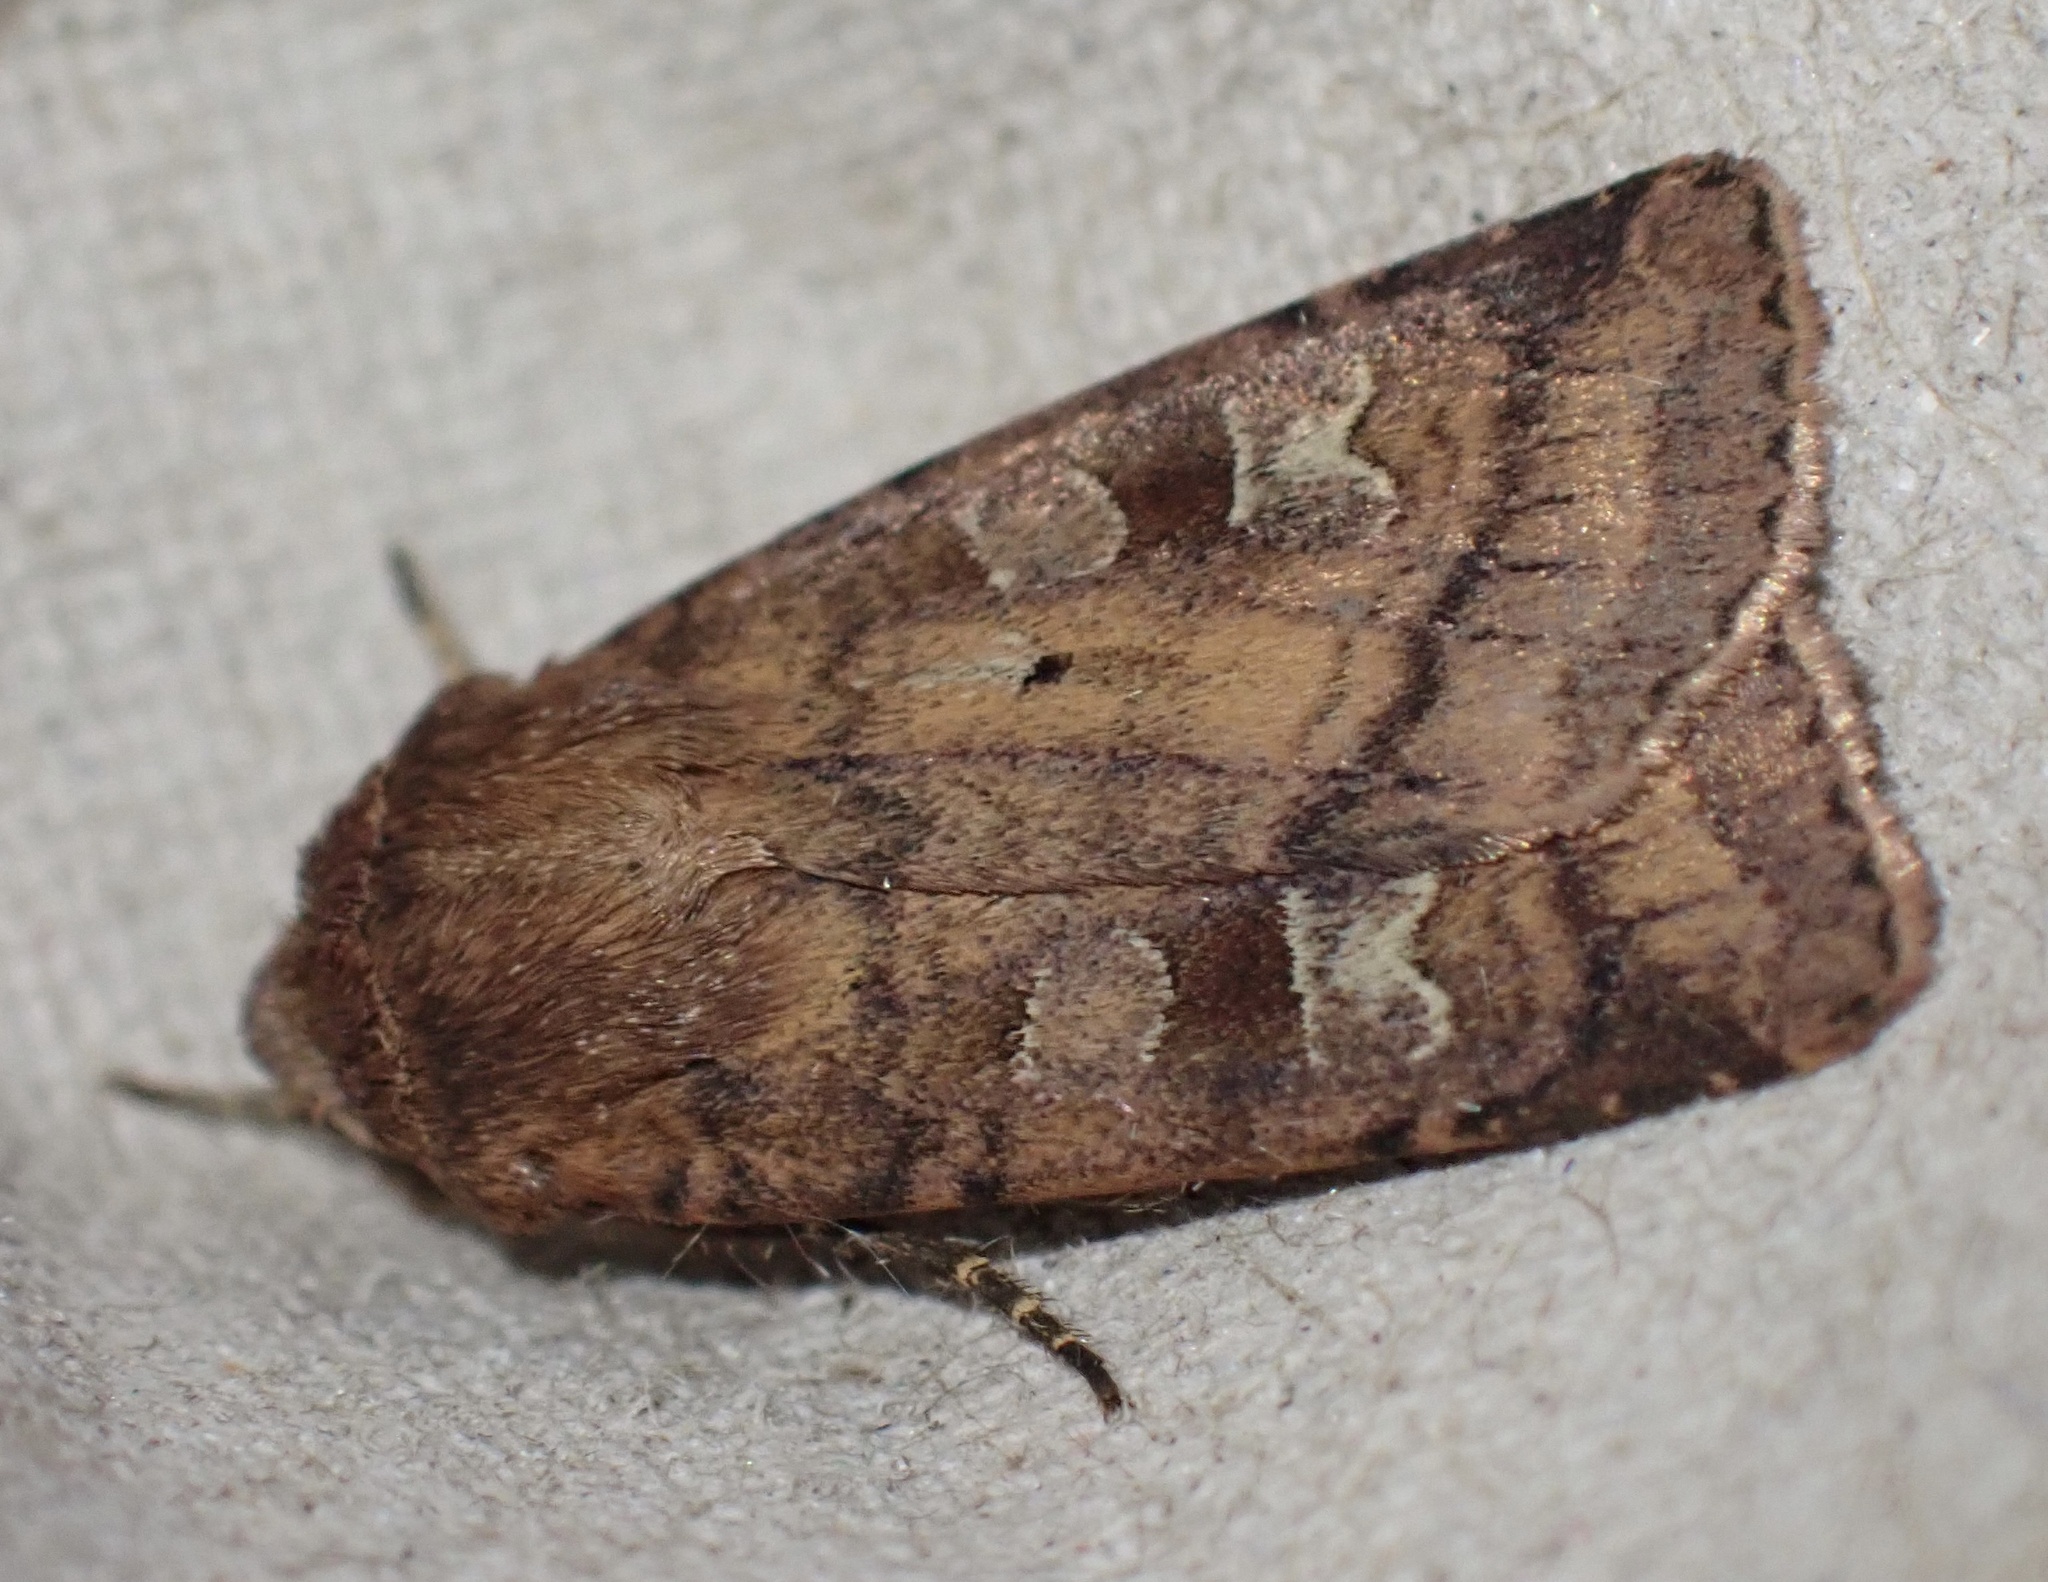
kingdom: Animalia
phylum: Arthropoda
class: Insecta
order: Lepidoptera
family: Noctuidae
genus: Diarsia
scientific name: Diarsia rubi
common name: Small square-spot
